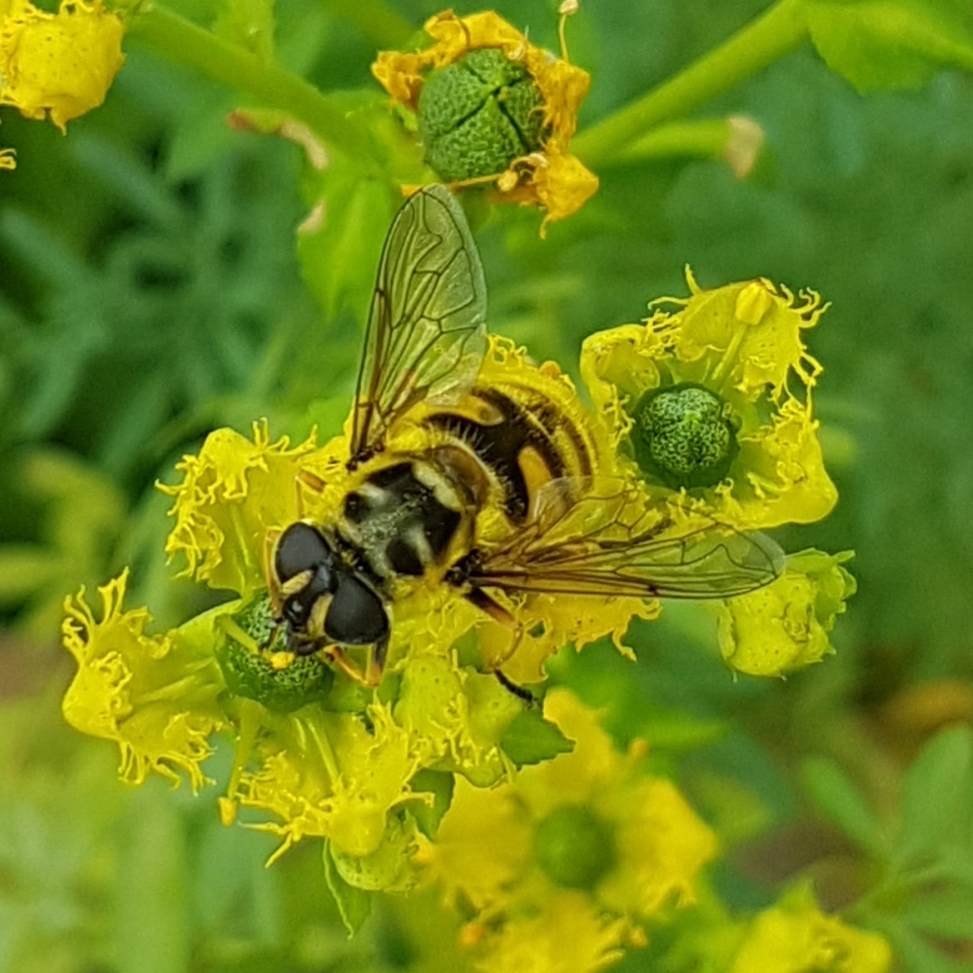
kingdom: Animalia
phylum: Arthropoda
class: Insecta
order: Diptera
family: Syrphidae
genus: Myathropa
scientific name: Myathropa florea
